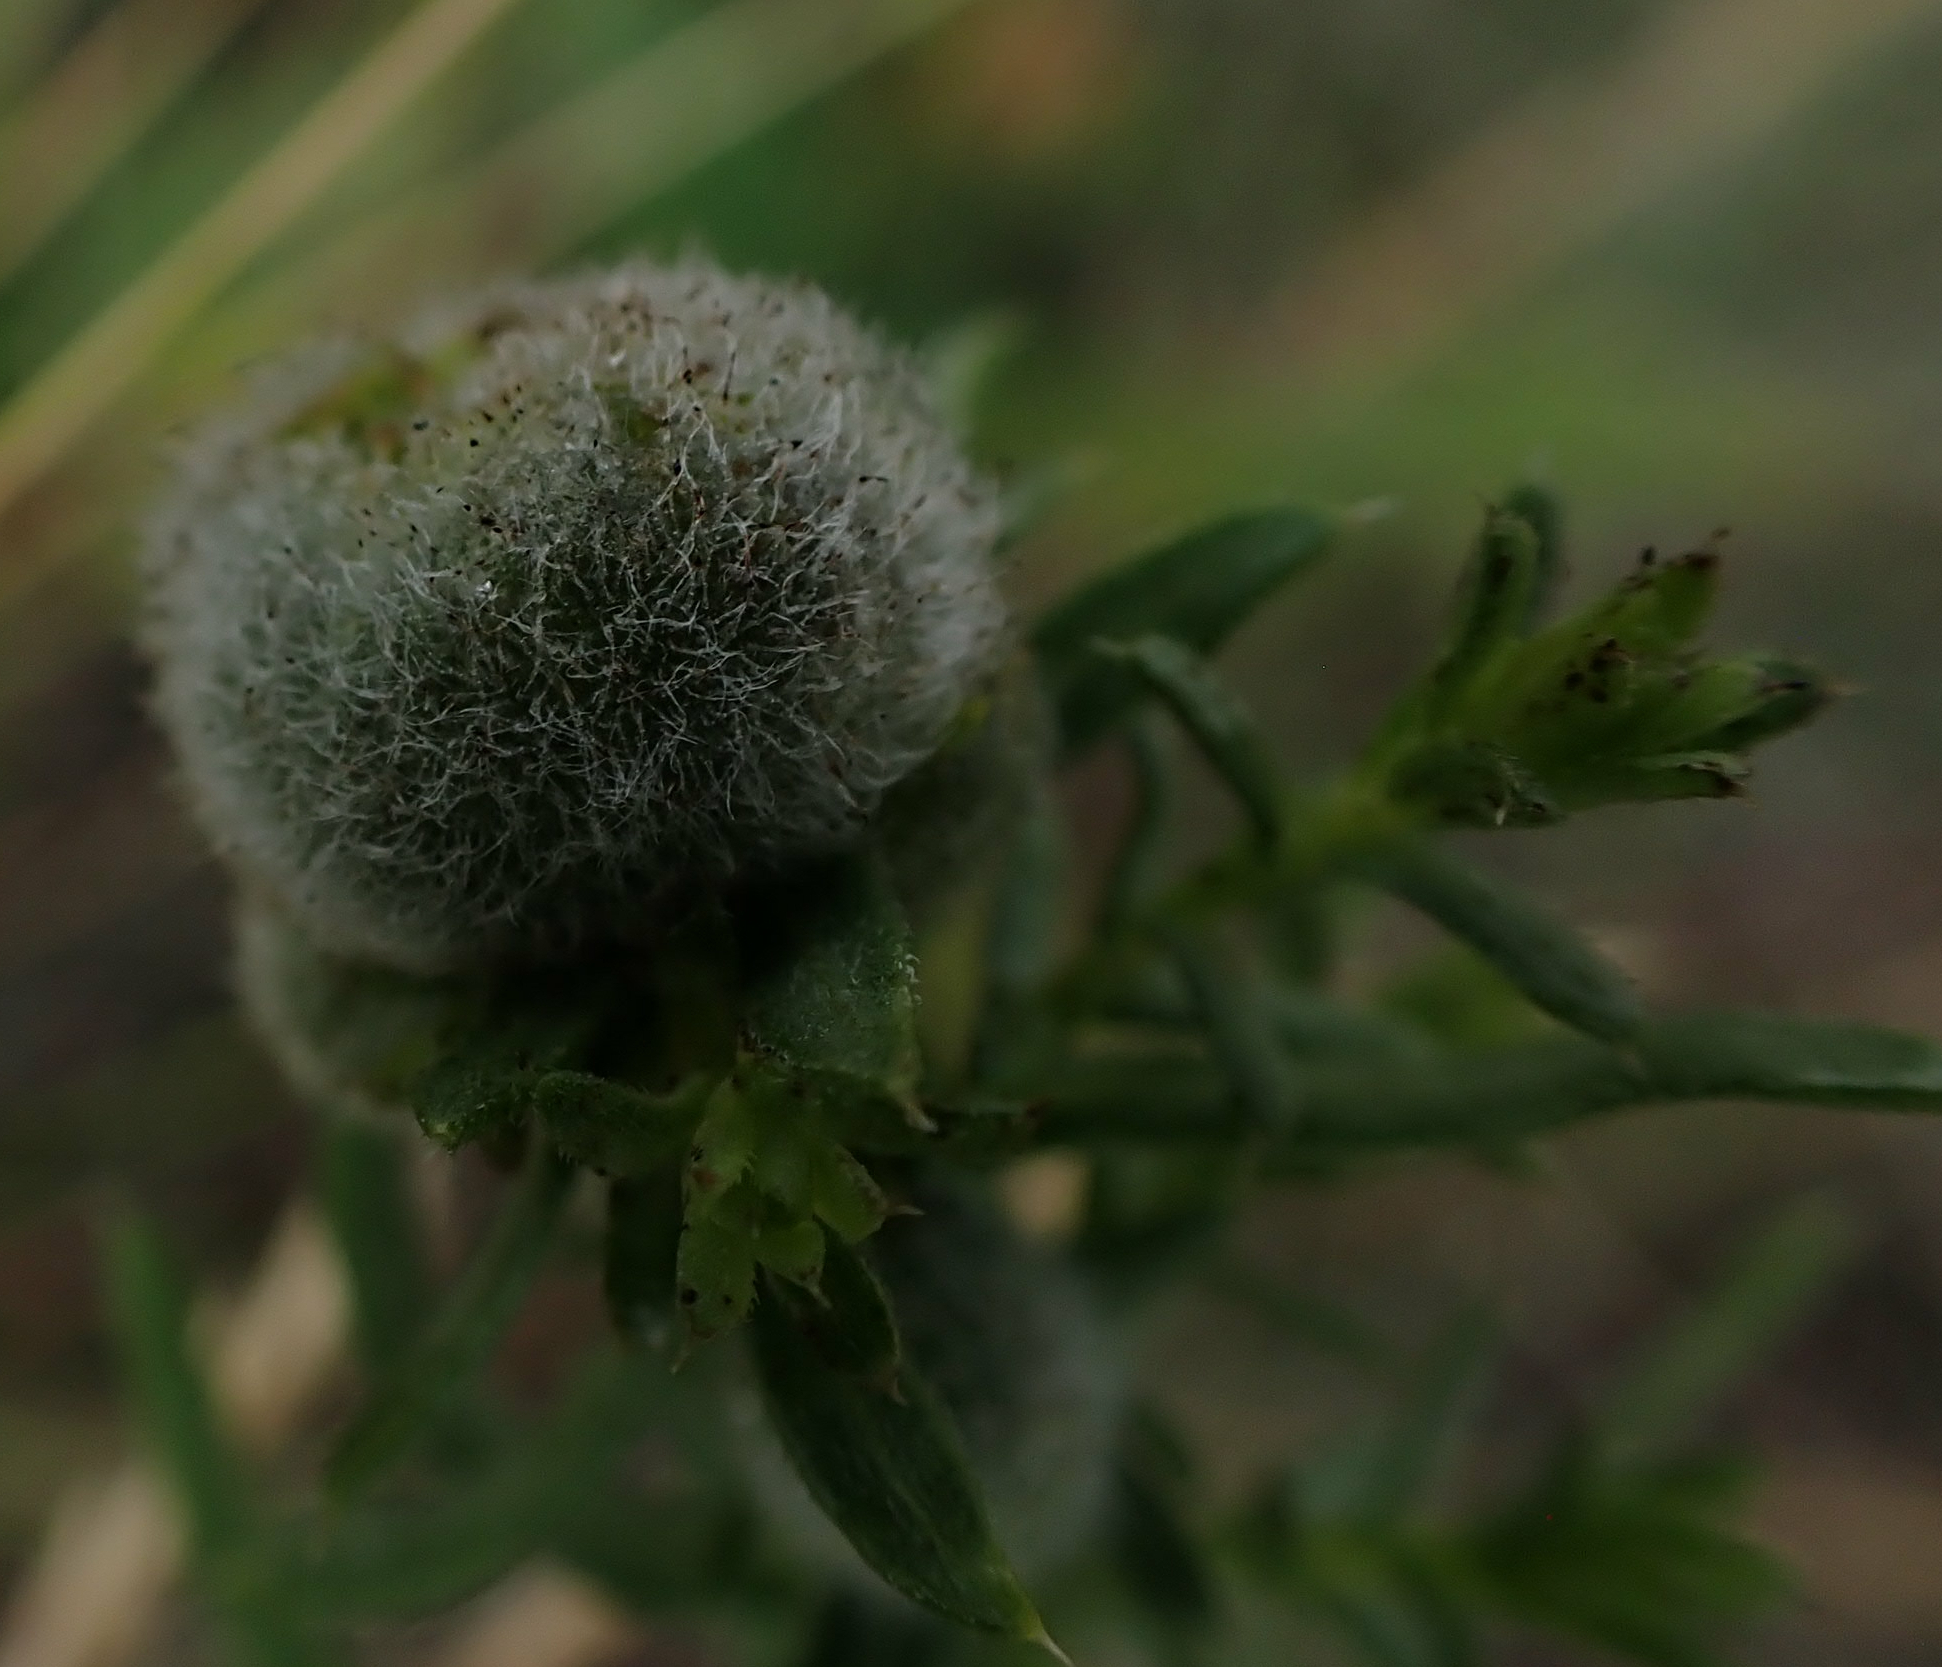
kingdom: Animalia
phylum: Arthropoda
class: Insecta
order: Diptera
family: Cecidomyiidae
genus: Rhopalomyia
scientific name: Rhopalomyia gemmaria
